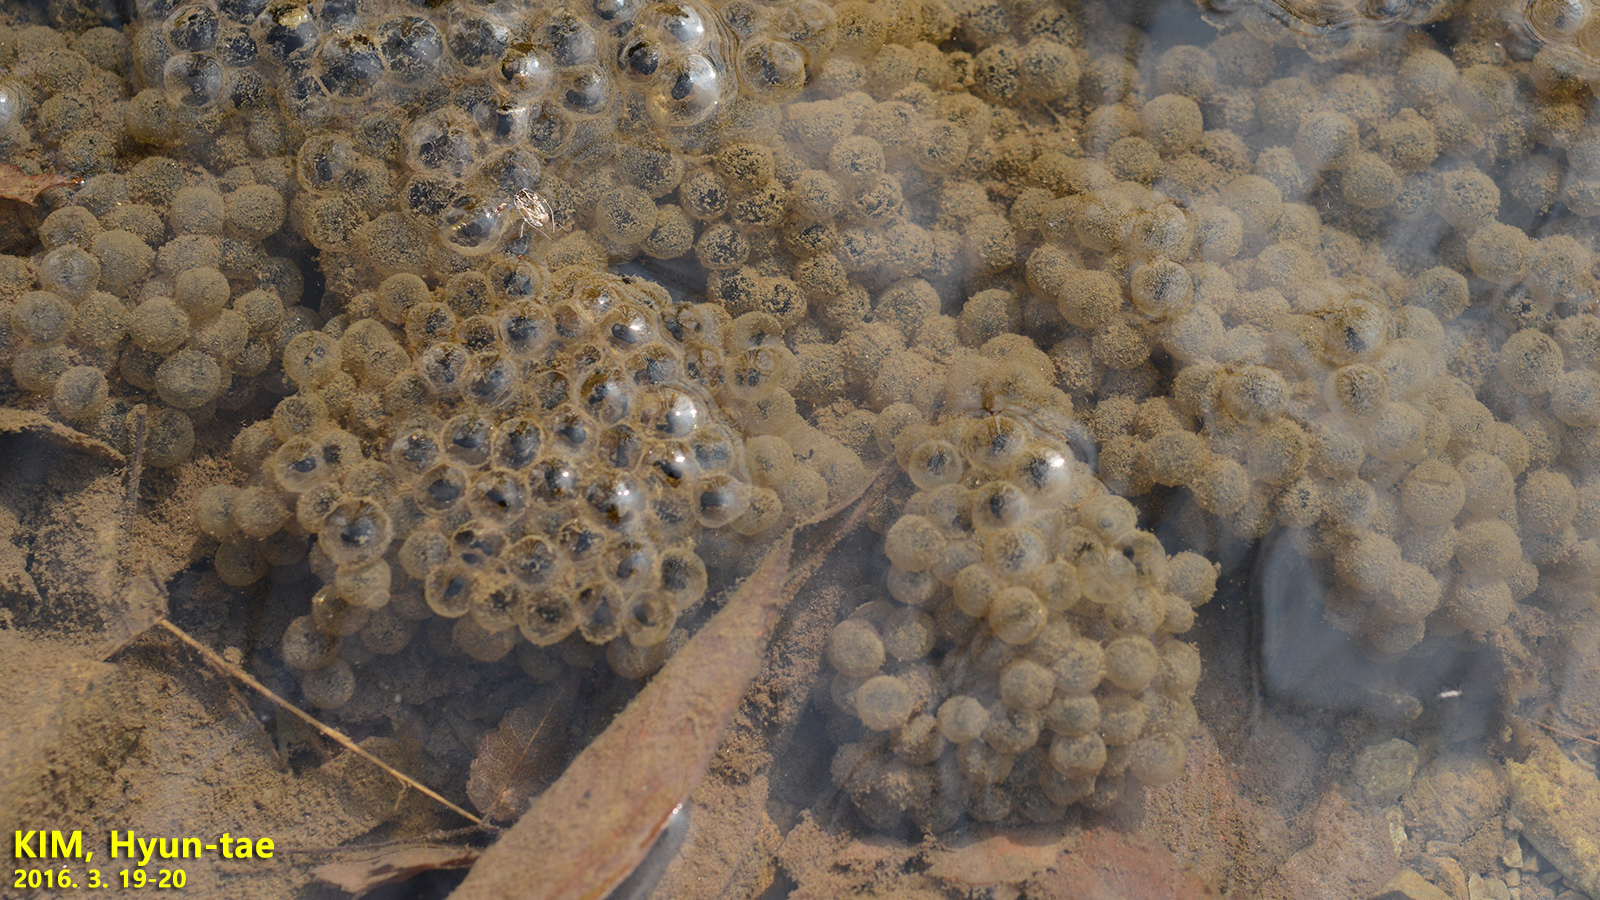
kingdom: Animalia
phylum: Chordata
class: Amphibia
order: Anura
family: Ranidae
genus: Rana
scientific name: Rana huanrenensis
